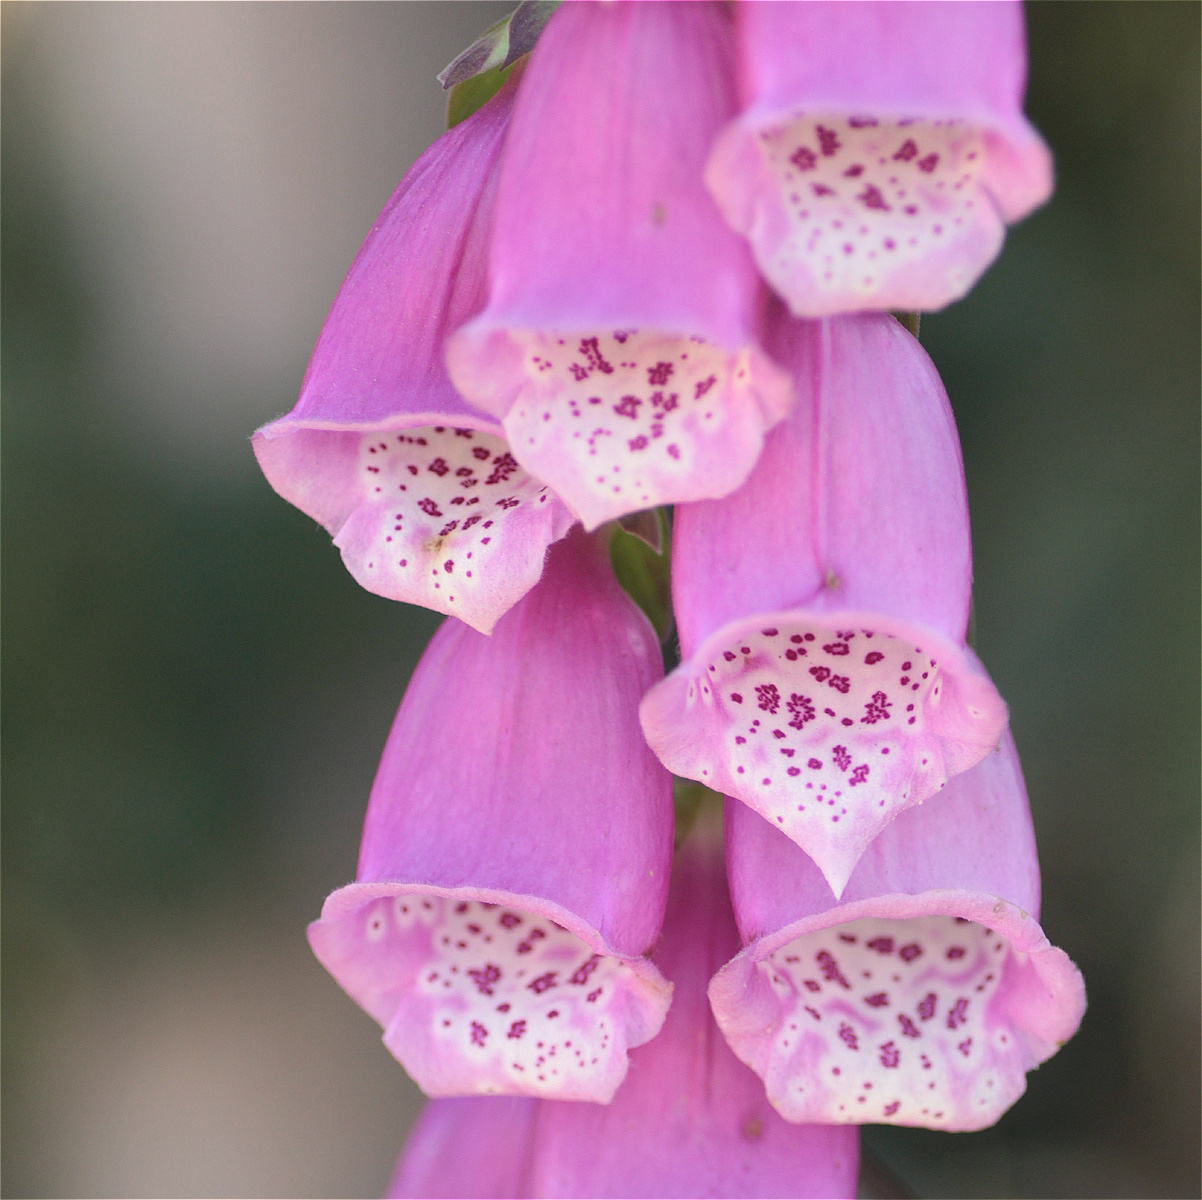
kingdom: Plantae
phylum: Tracheophyta
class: Magnoliopsida
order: Lamiales
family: Plantaginaceae
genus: Digitalis
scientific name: Digitalis purpurea
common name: Foxglove
